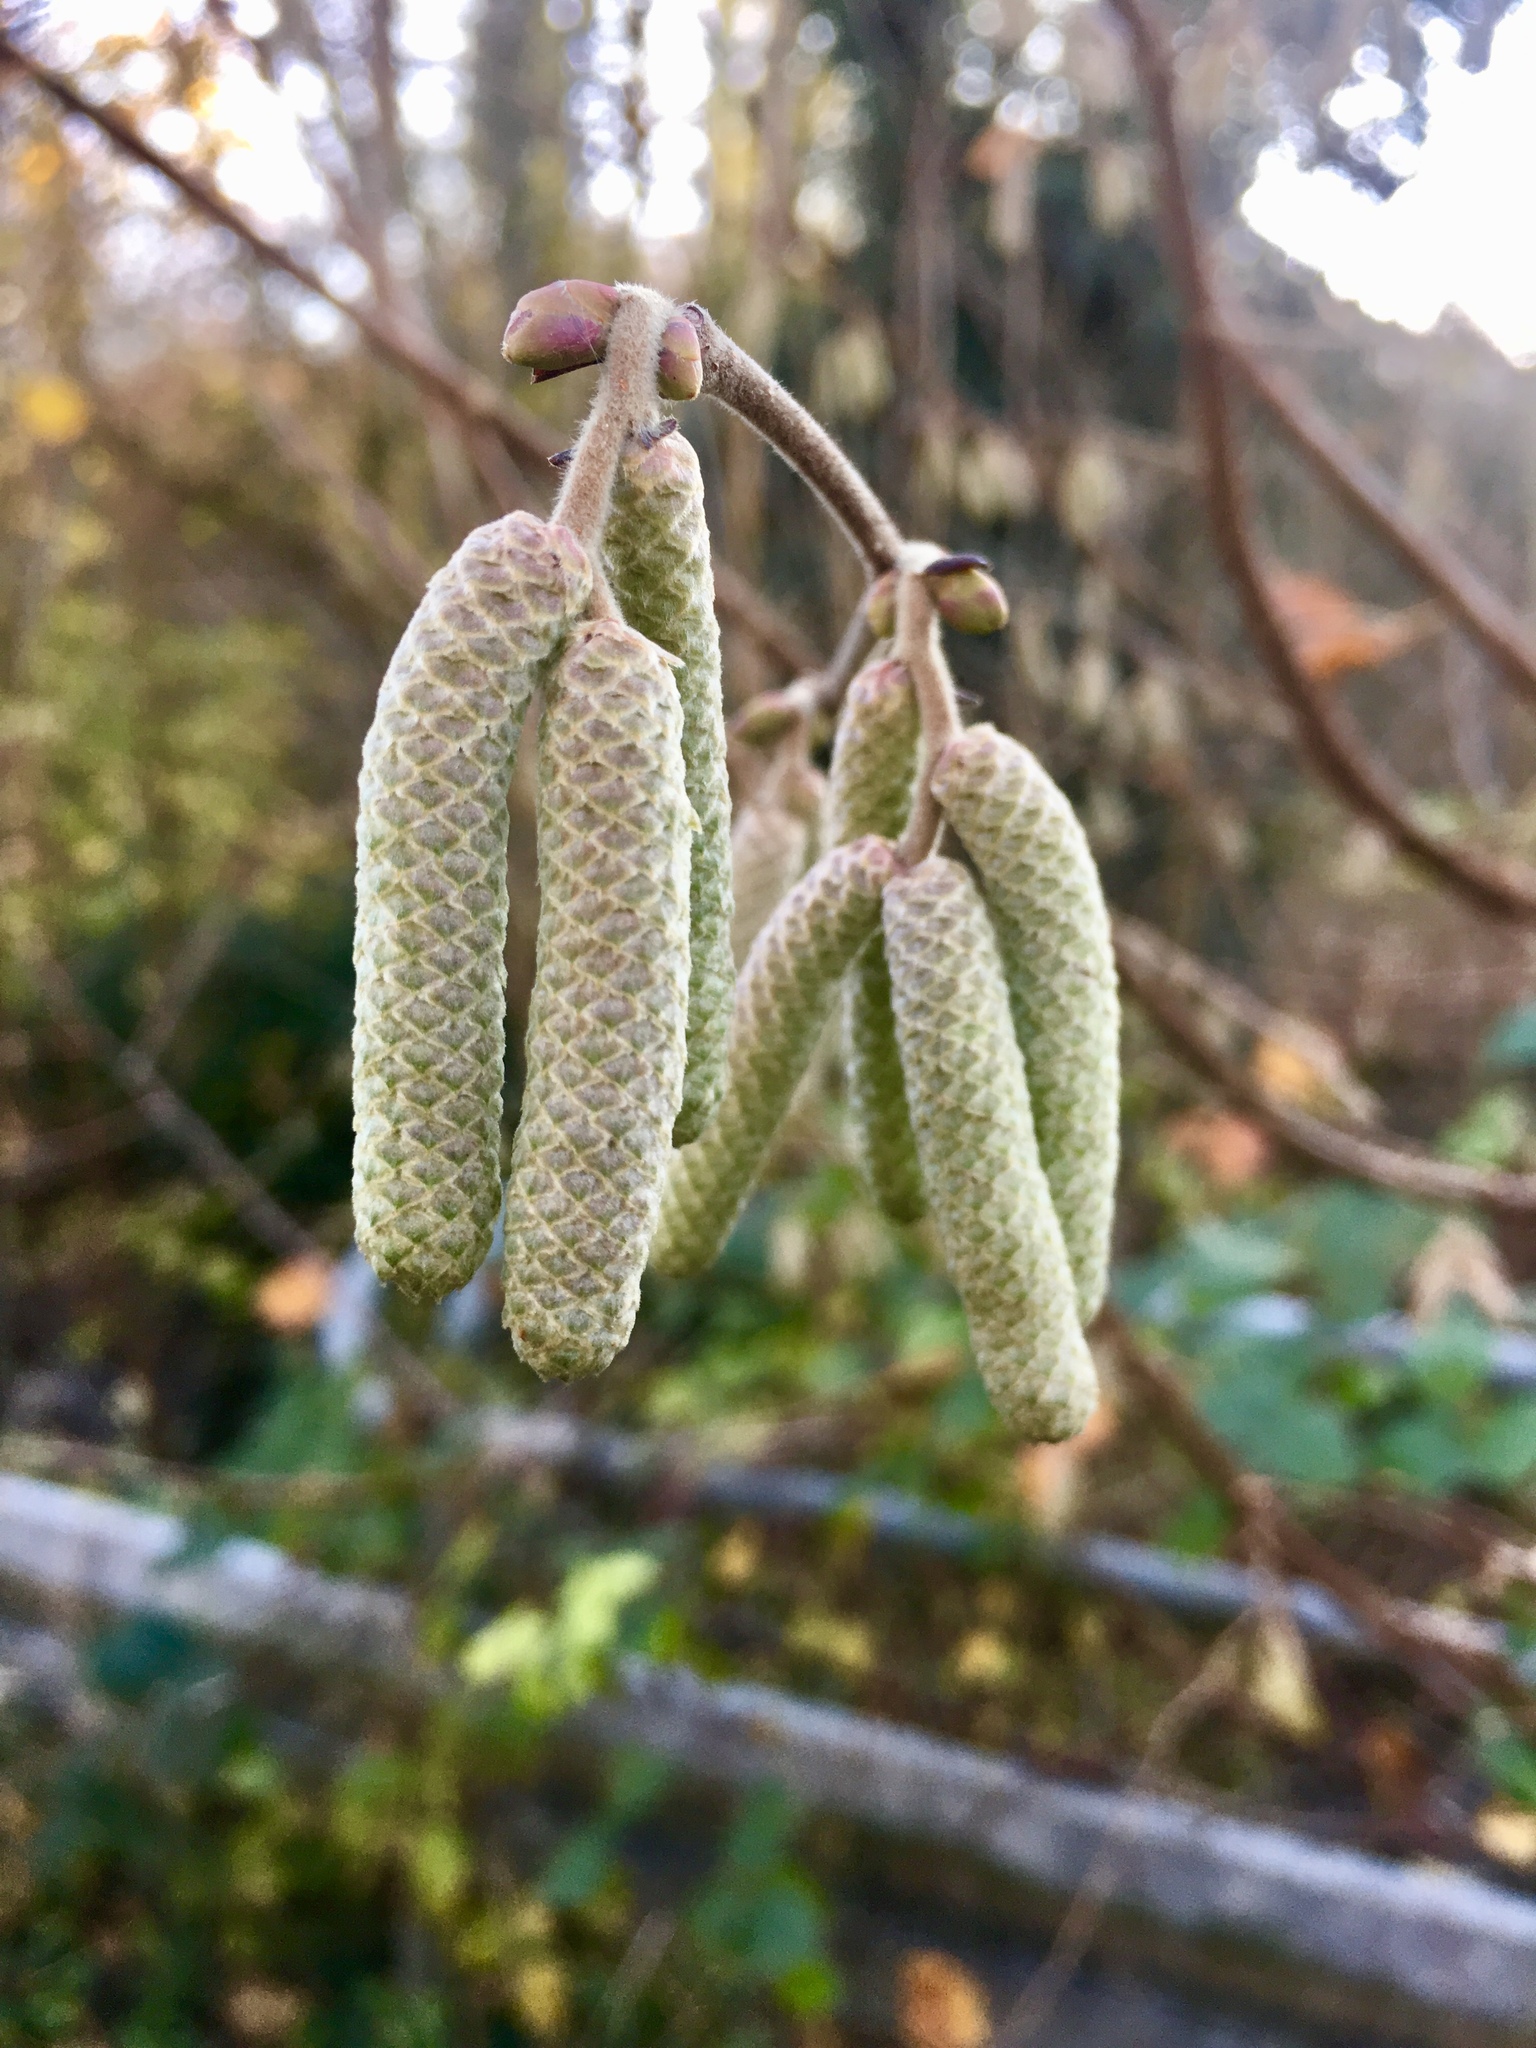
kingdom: Plantae
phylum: Tracheophyta
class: Magnoliopsida
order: Fagales
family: Betulaceae
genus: Corylus
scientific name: Corylus avellana
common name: European hazel
